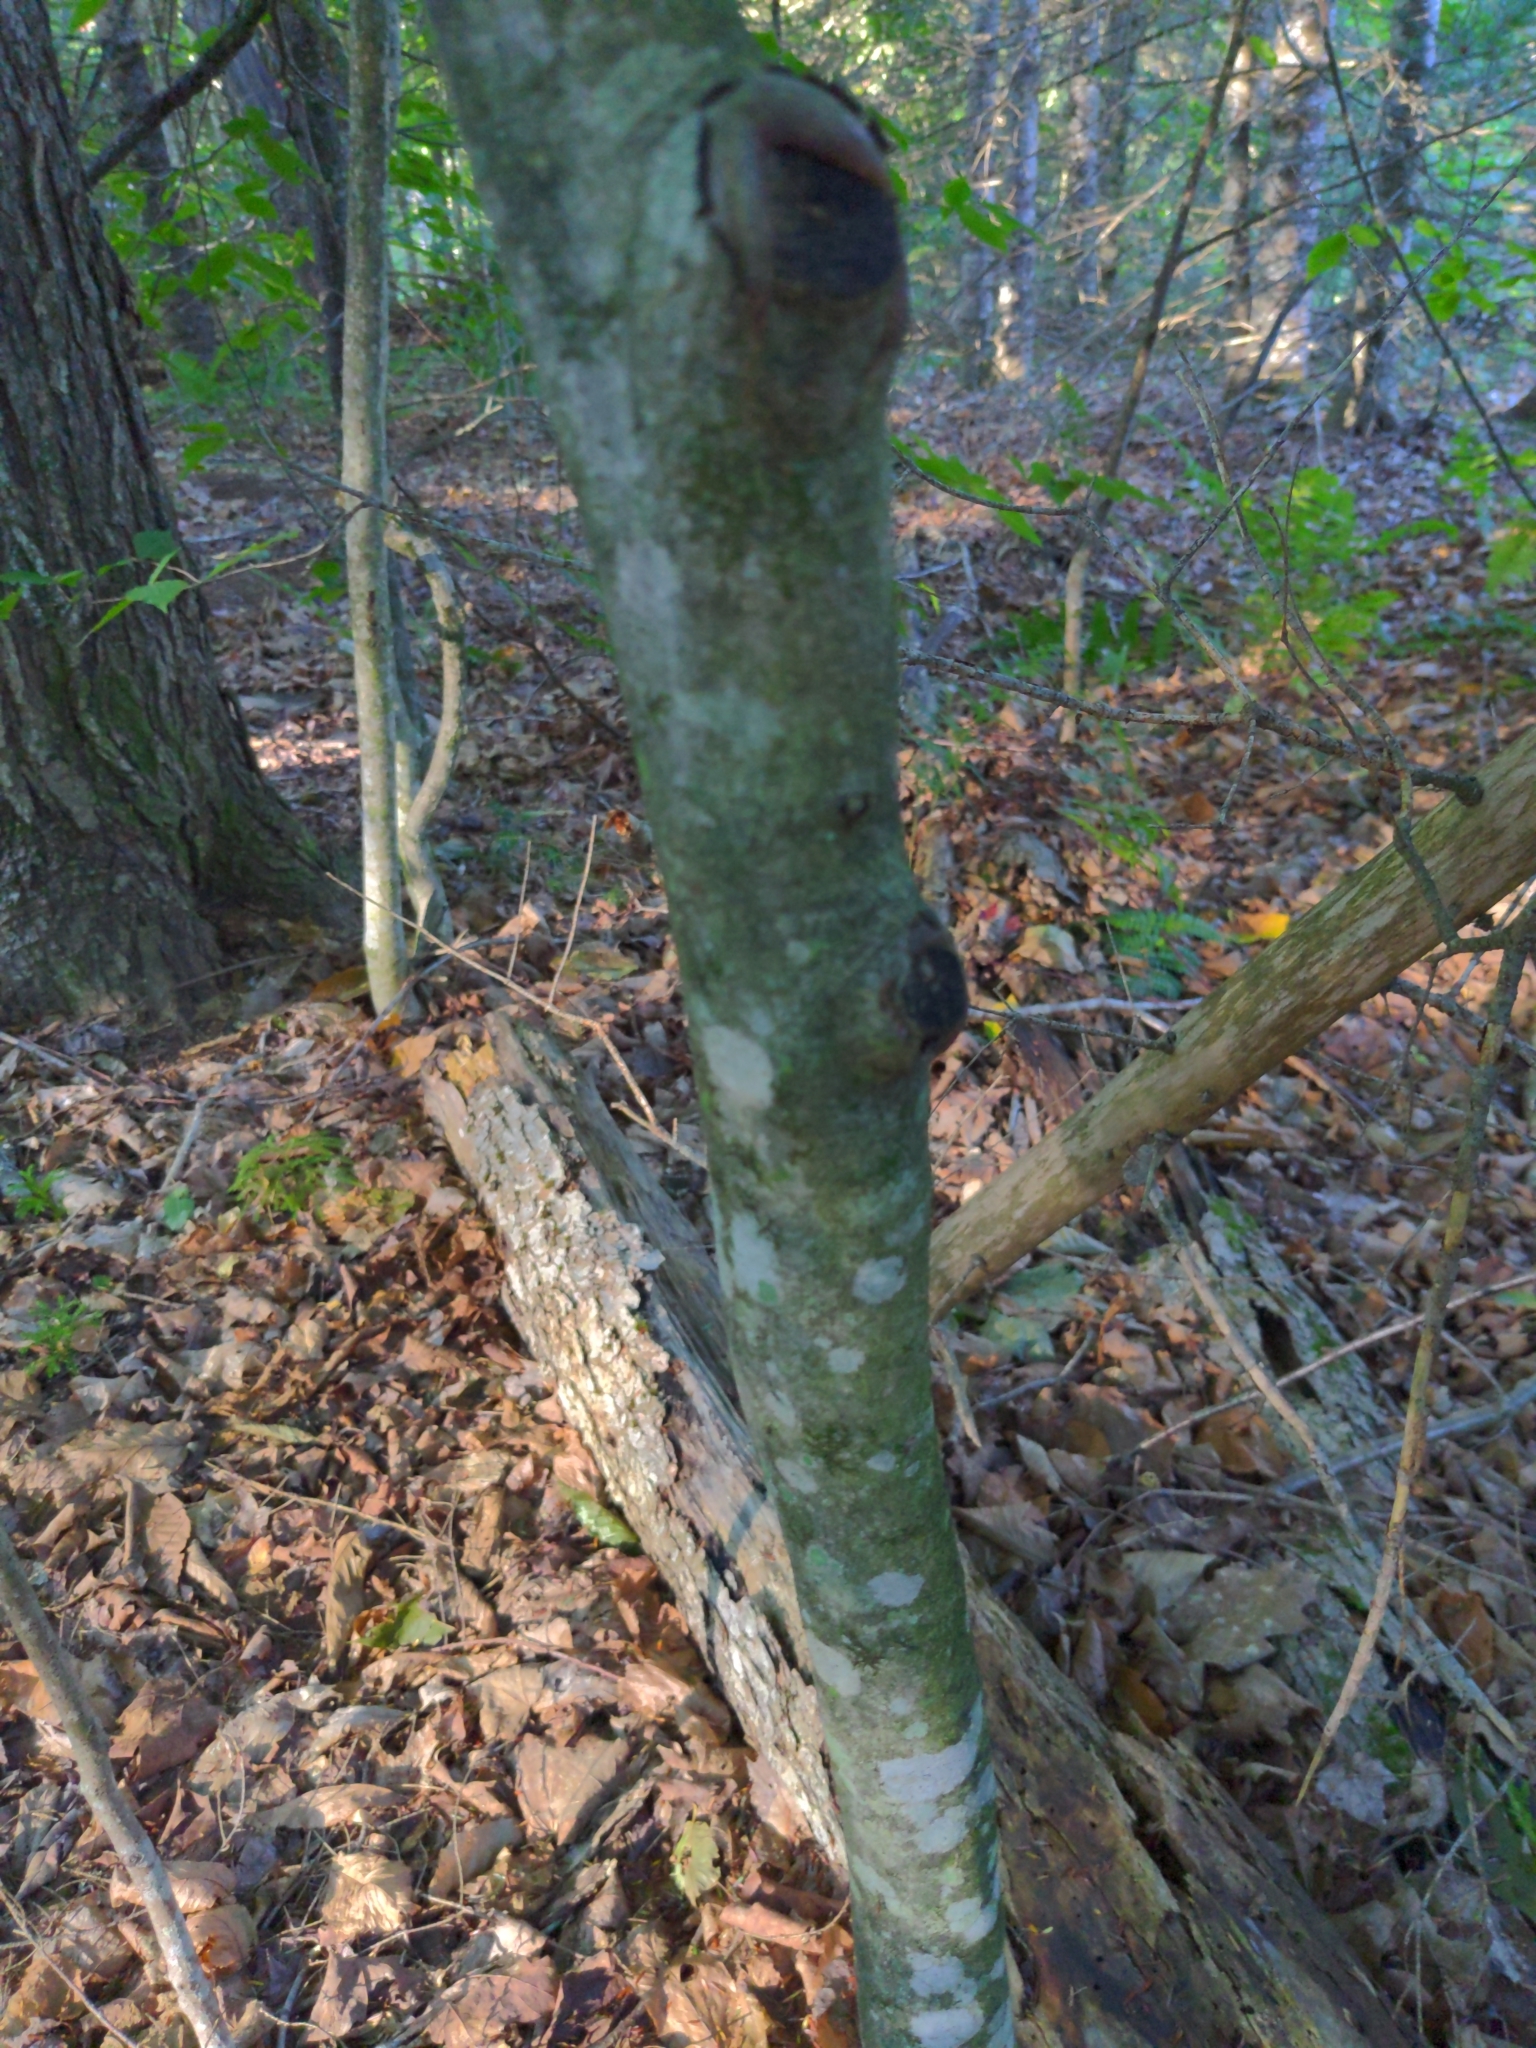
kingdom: Plantae
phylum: Tracheophyta
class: Magnoliopsida
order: Fagales
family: Fagaceae
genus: Fagus
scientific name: Fagus grandifolia
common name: American beech
